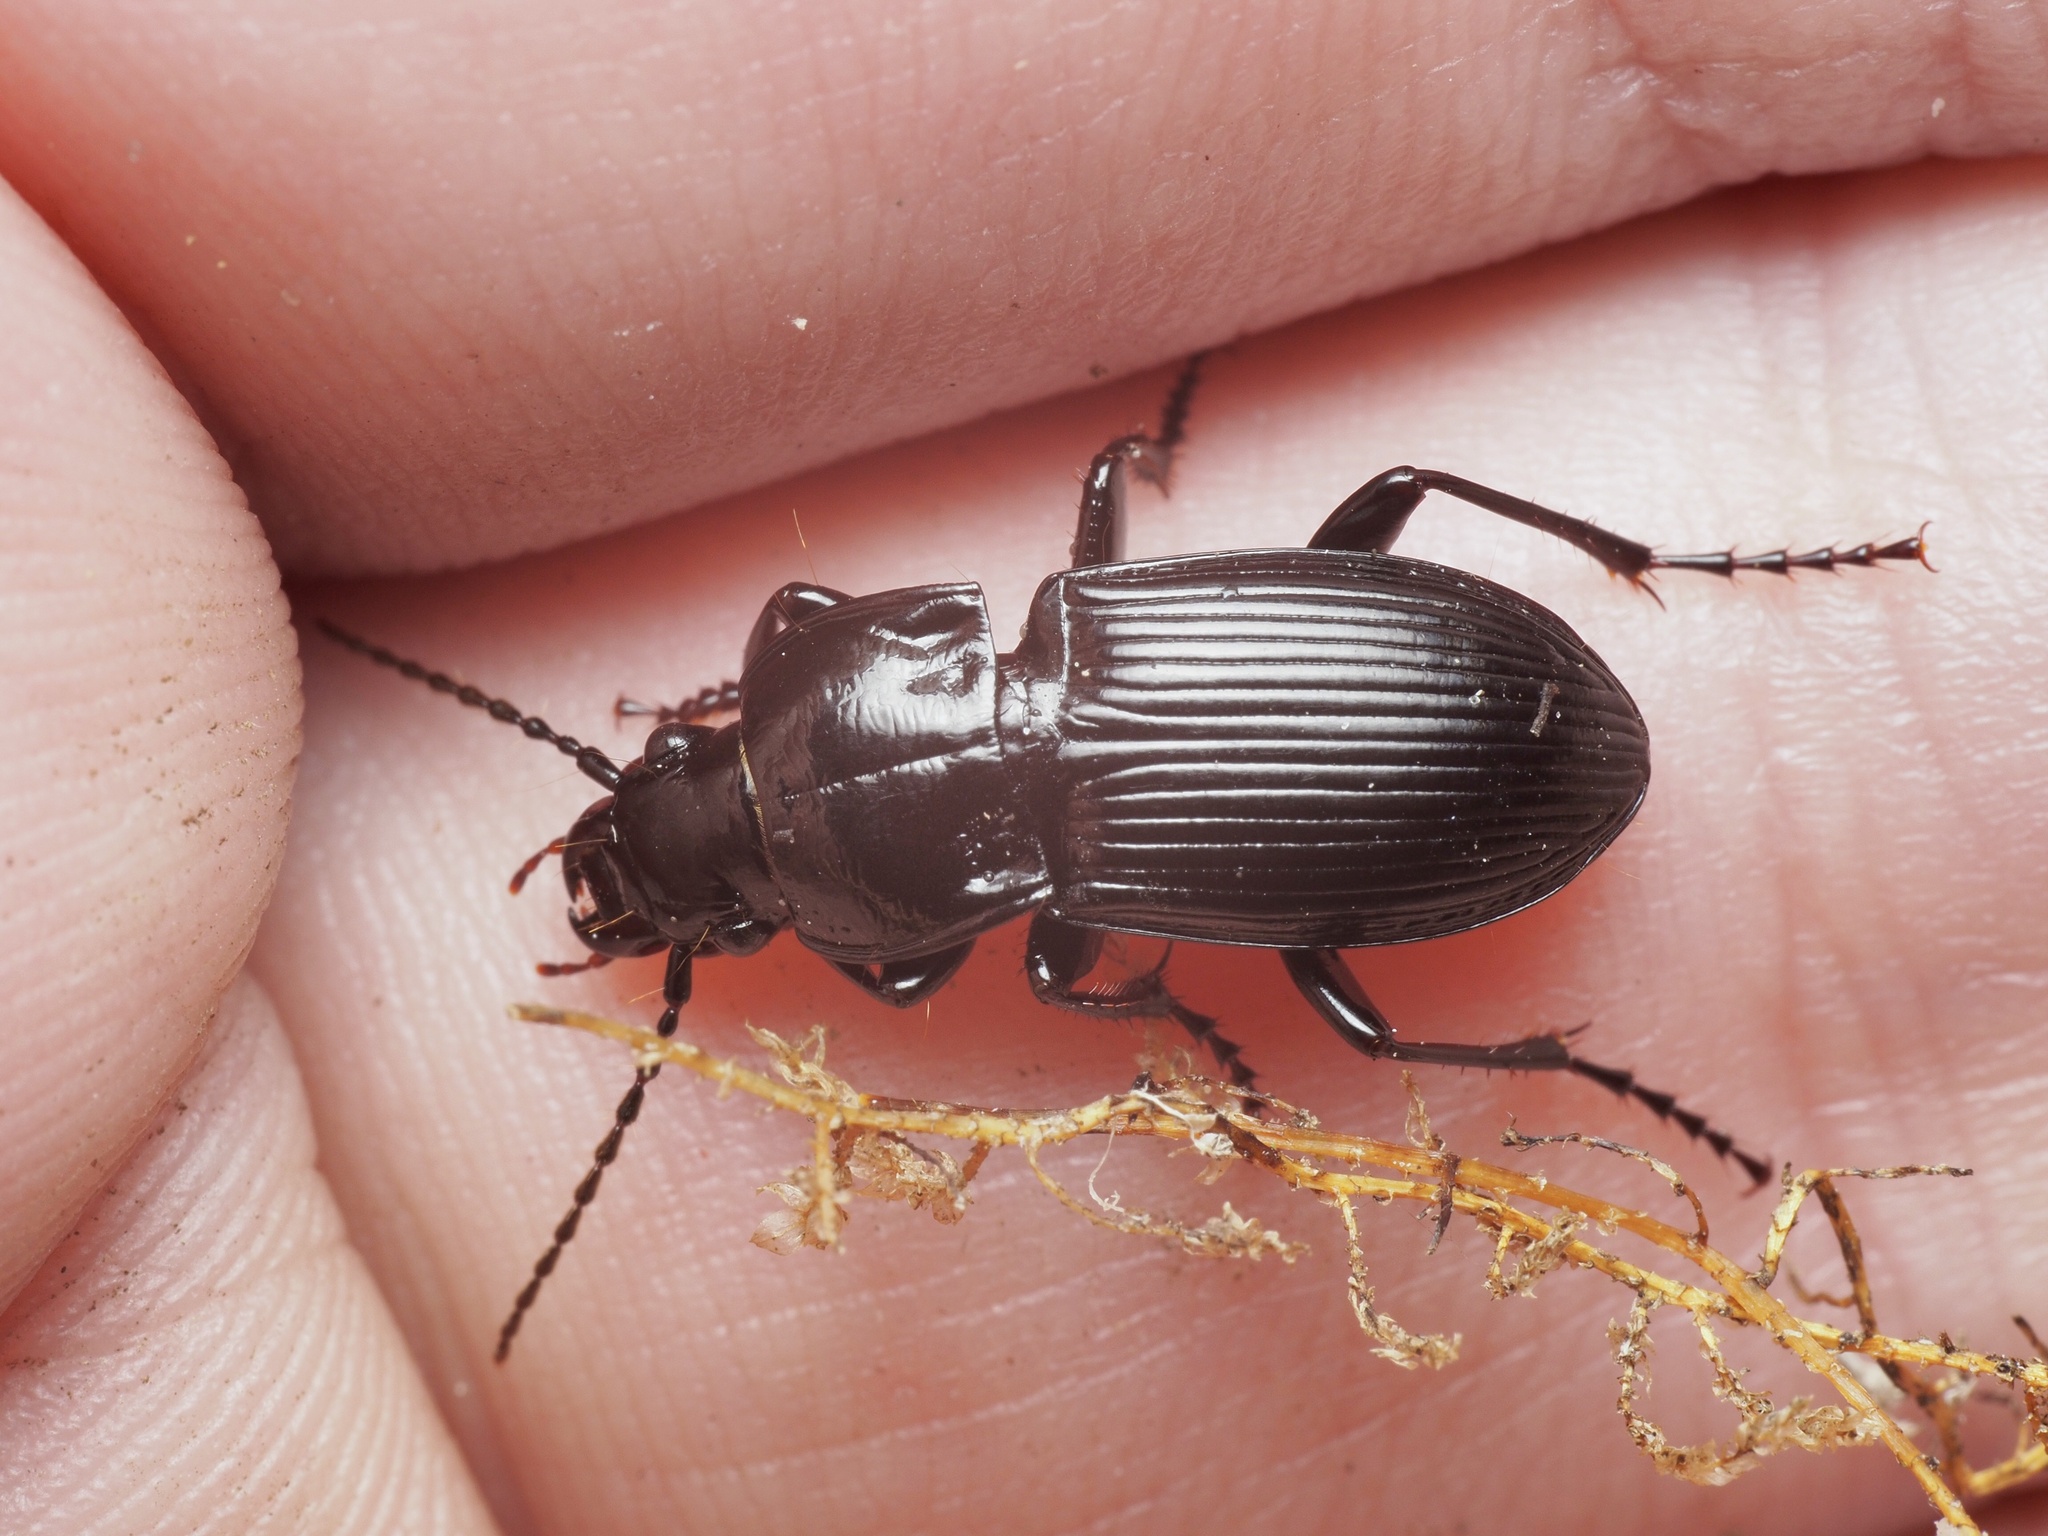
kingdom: Animalia
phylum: Arthropoda
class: Insecta
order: Coleoptera
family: Carabidae
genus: Abax
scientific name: Abax parallelus
